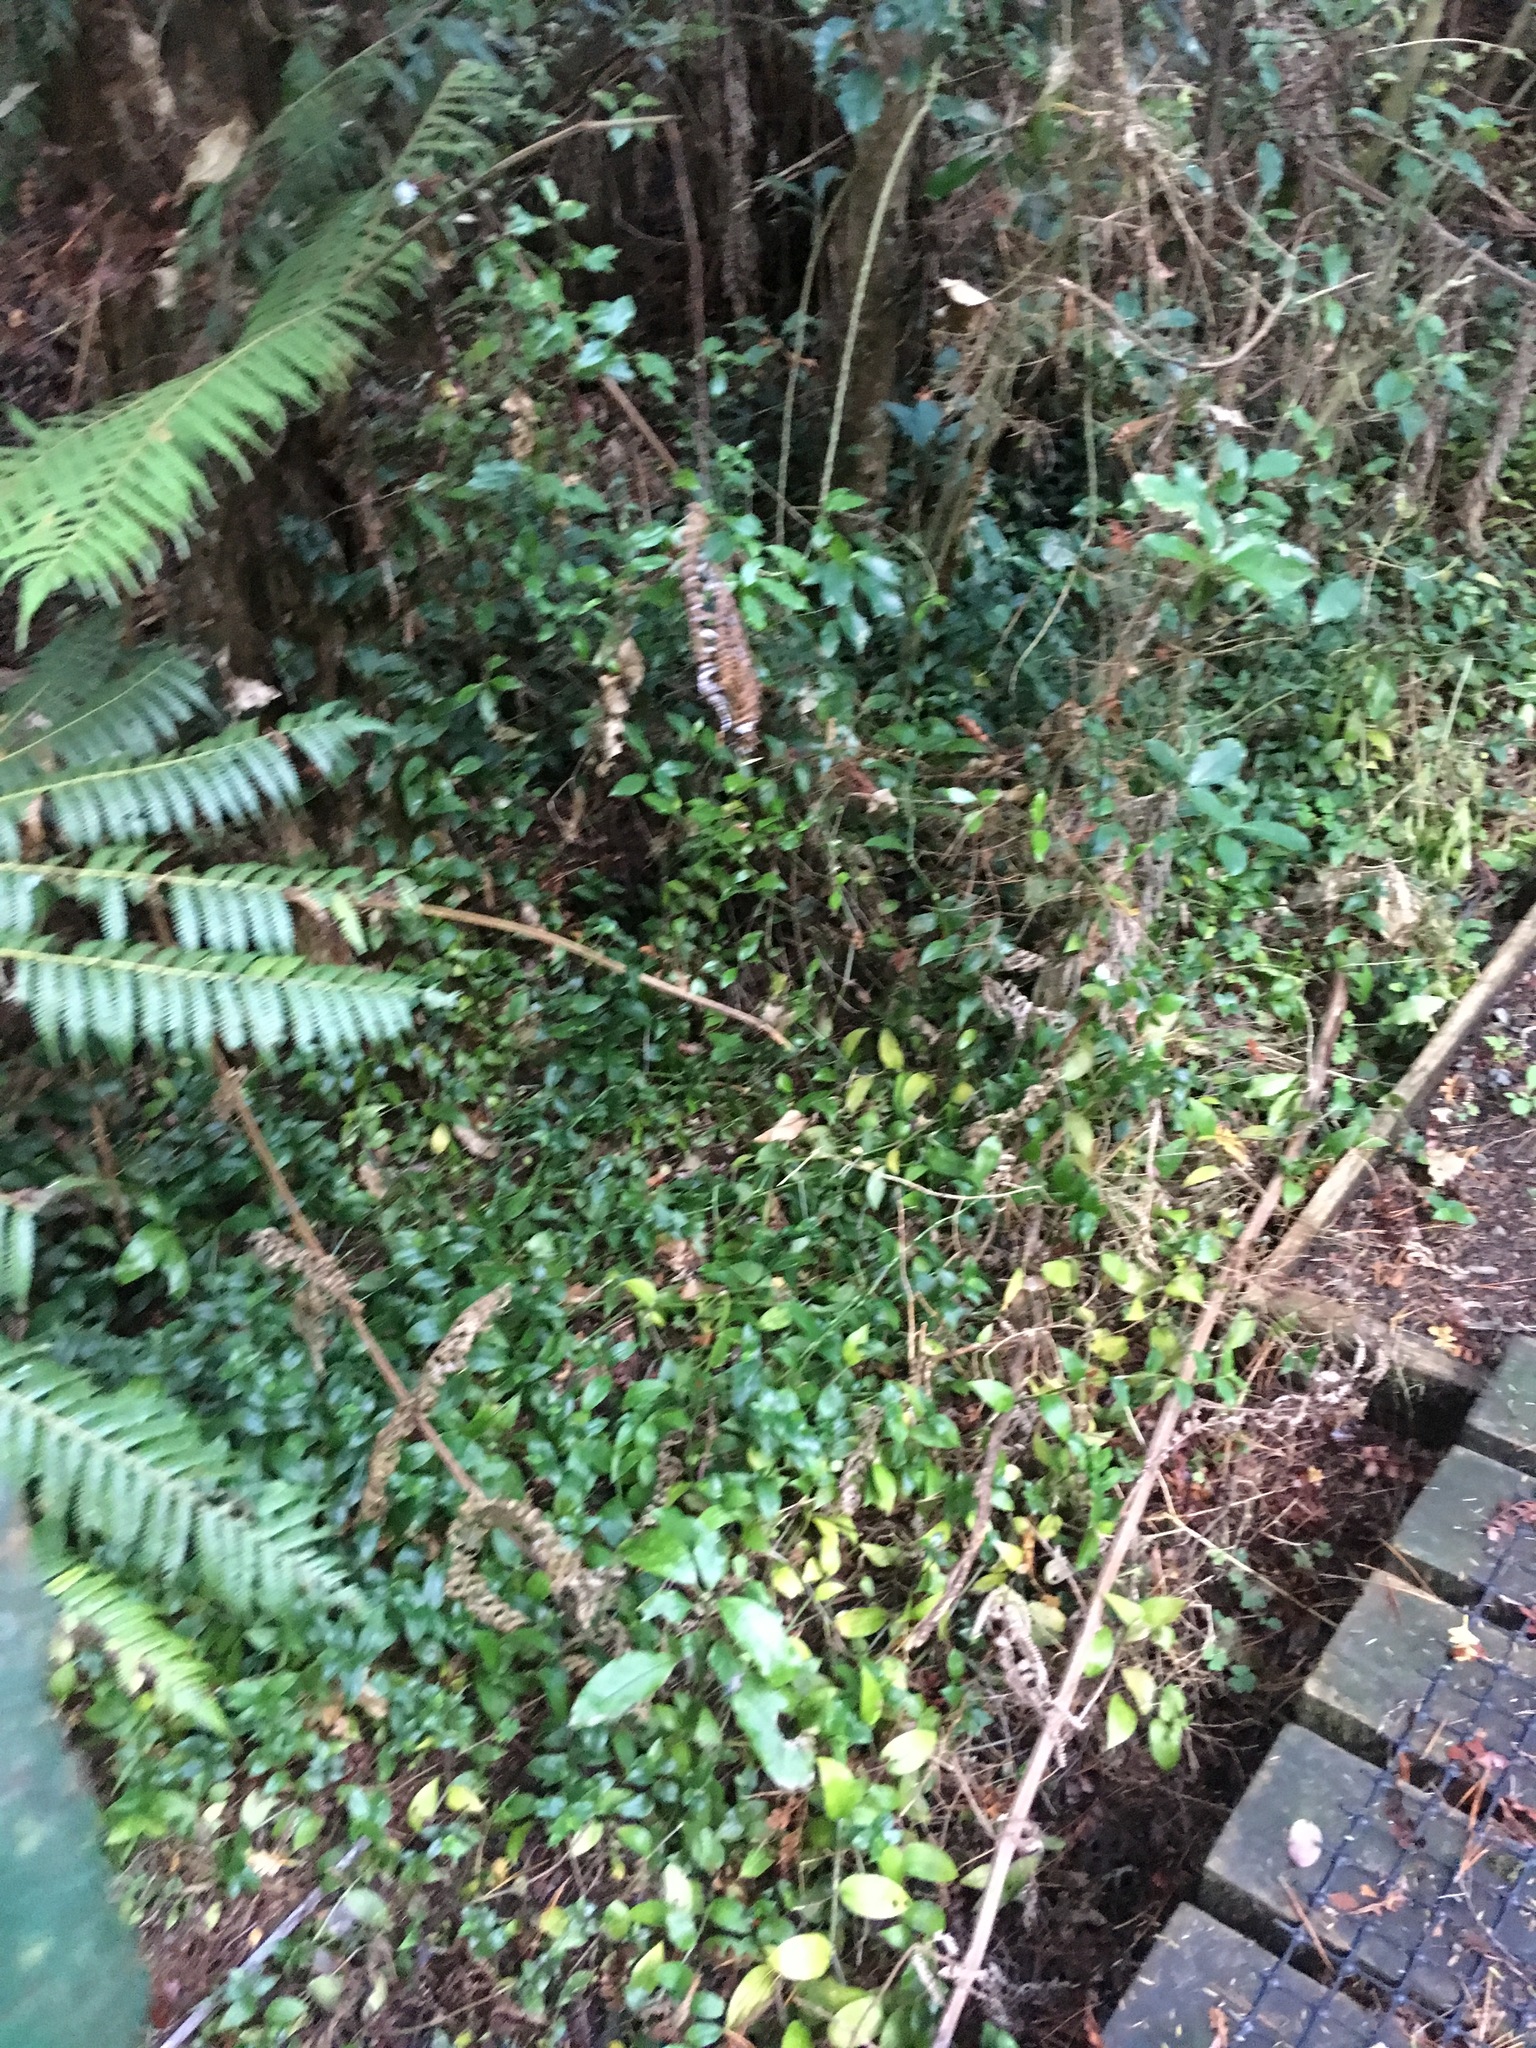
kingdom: Plantae
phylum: Tracheophyta
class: Liliopsida
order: Commelinales
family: Commelinaceae
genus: Tradescantia
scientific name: Tradescantia fluminensis
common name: Wandering-jew
